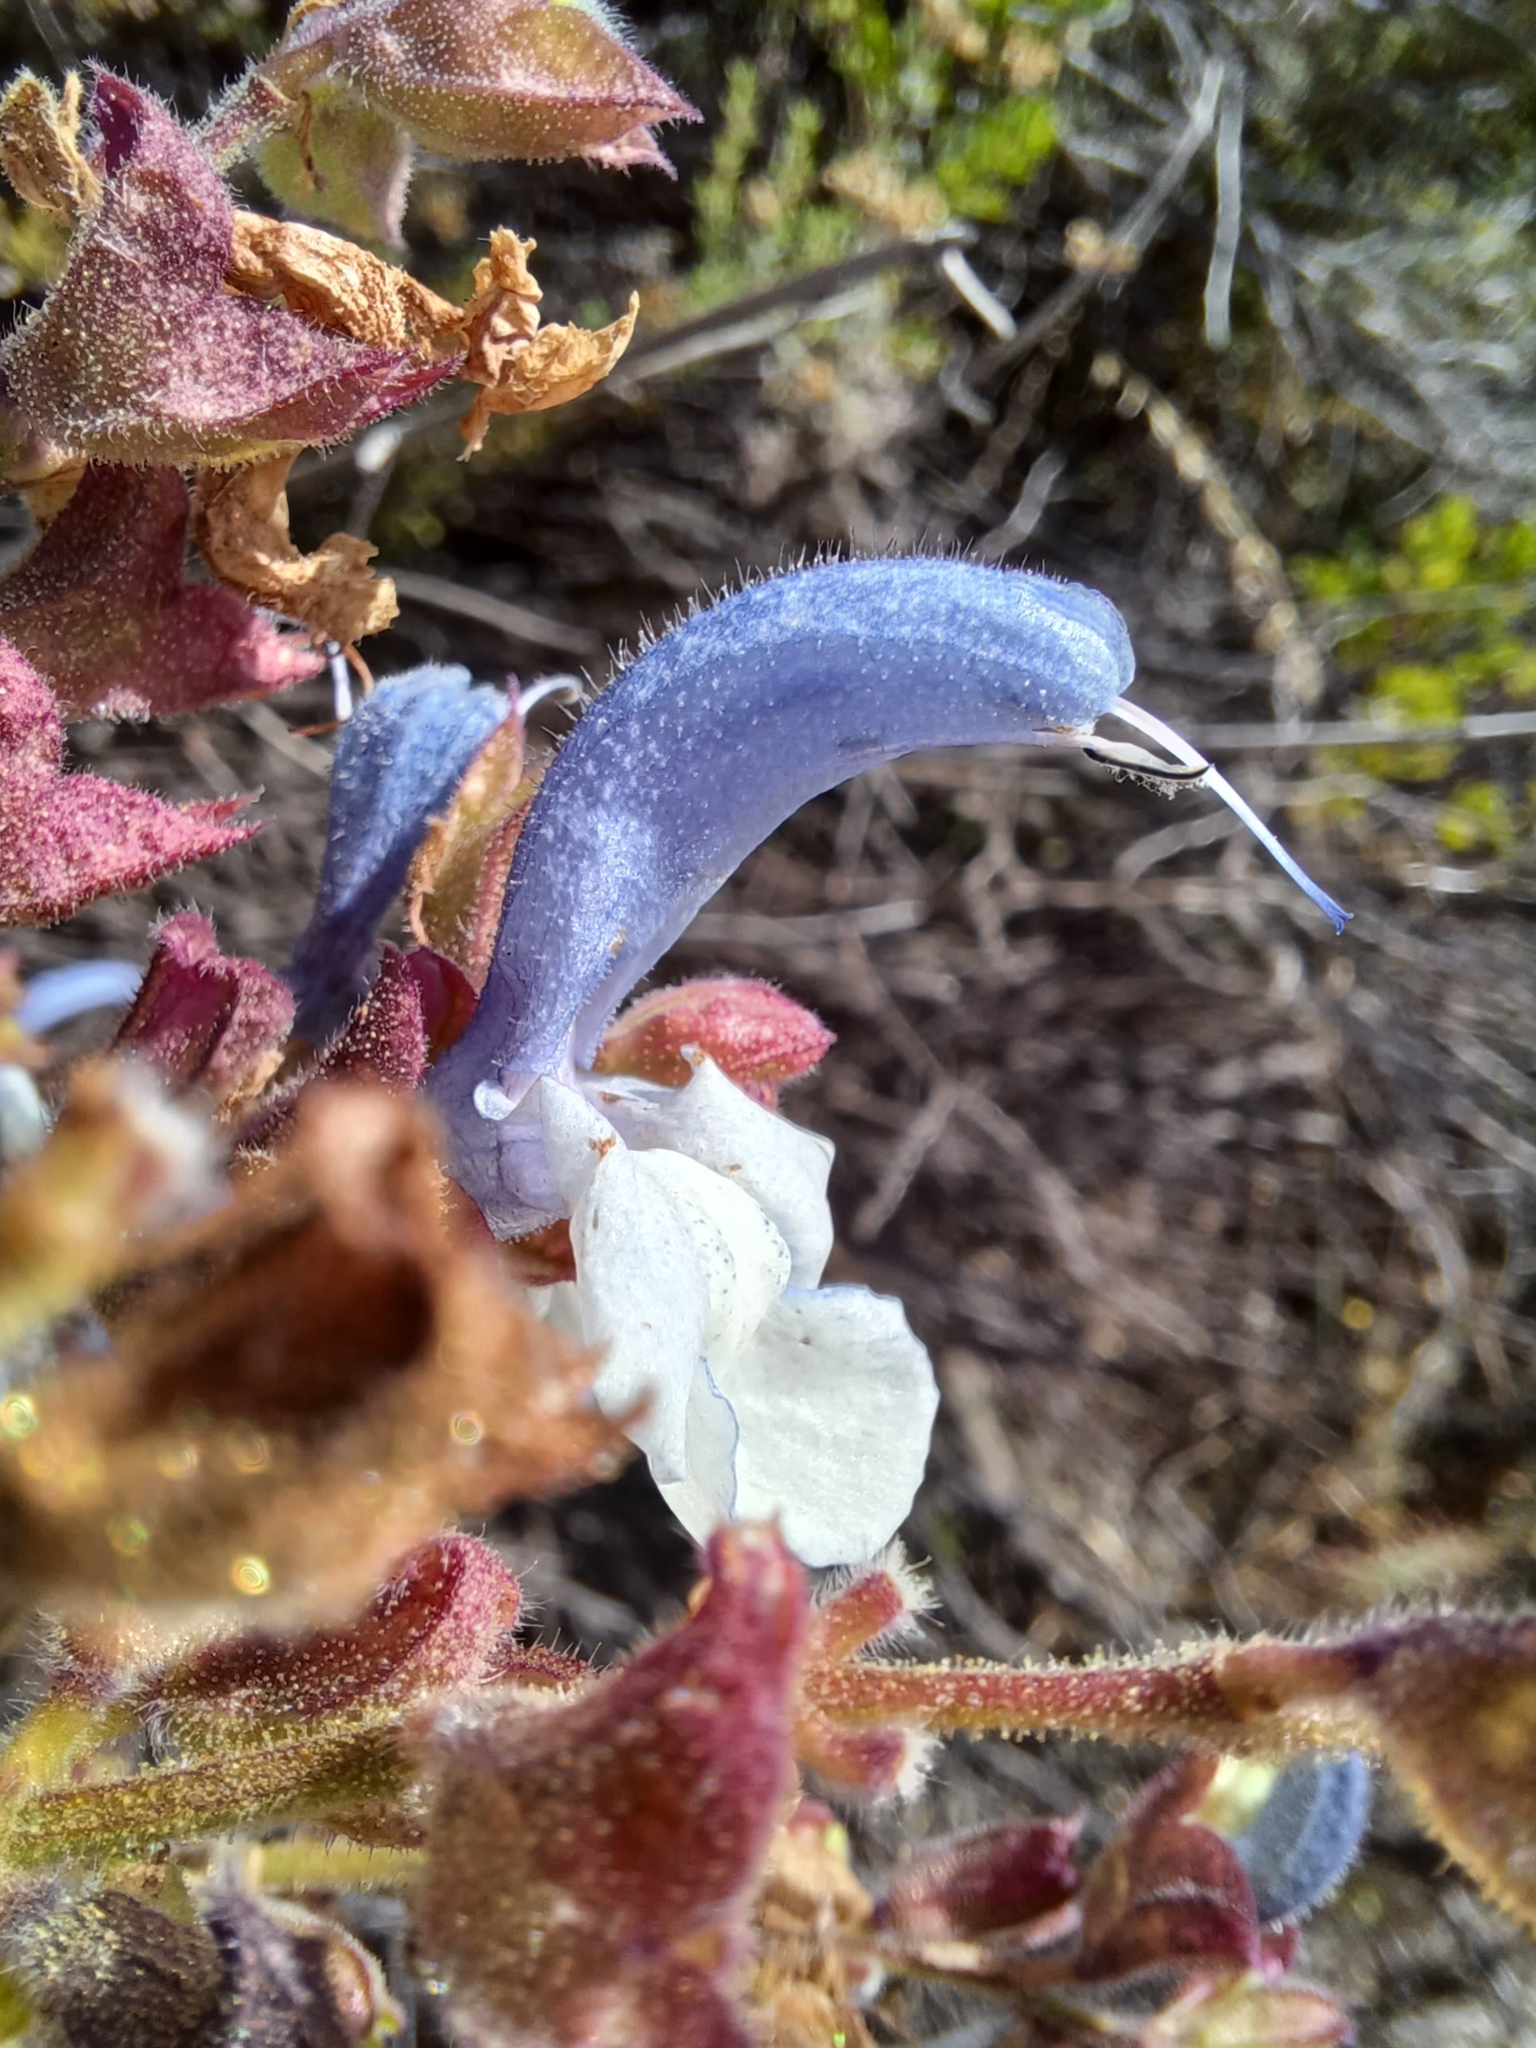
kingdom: Plantae
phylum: Tracheophyta
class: Magnoliopsida
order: Lamiales
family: Lamiaceae
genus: Salvia
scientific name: Salvia chamelaeagnea
